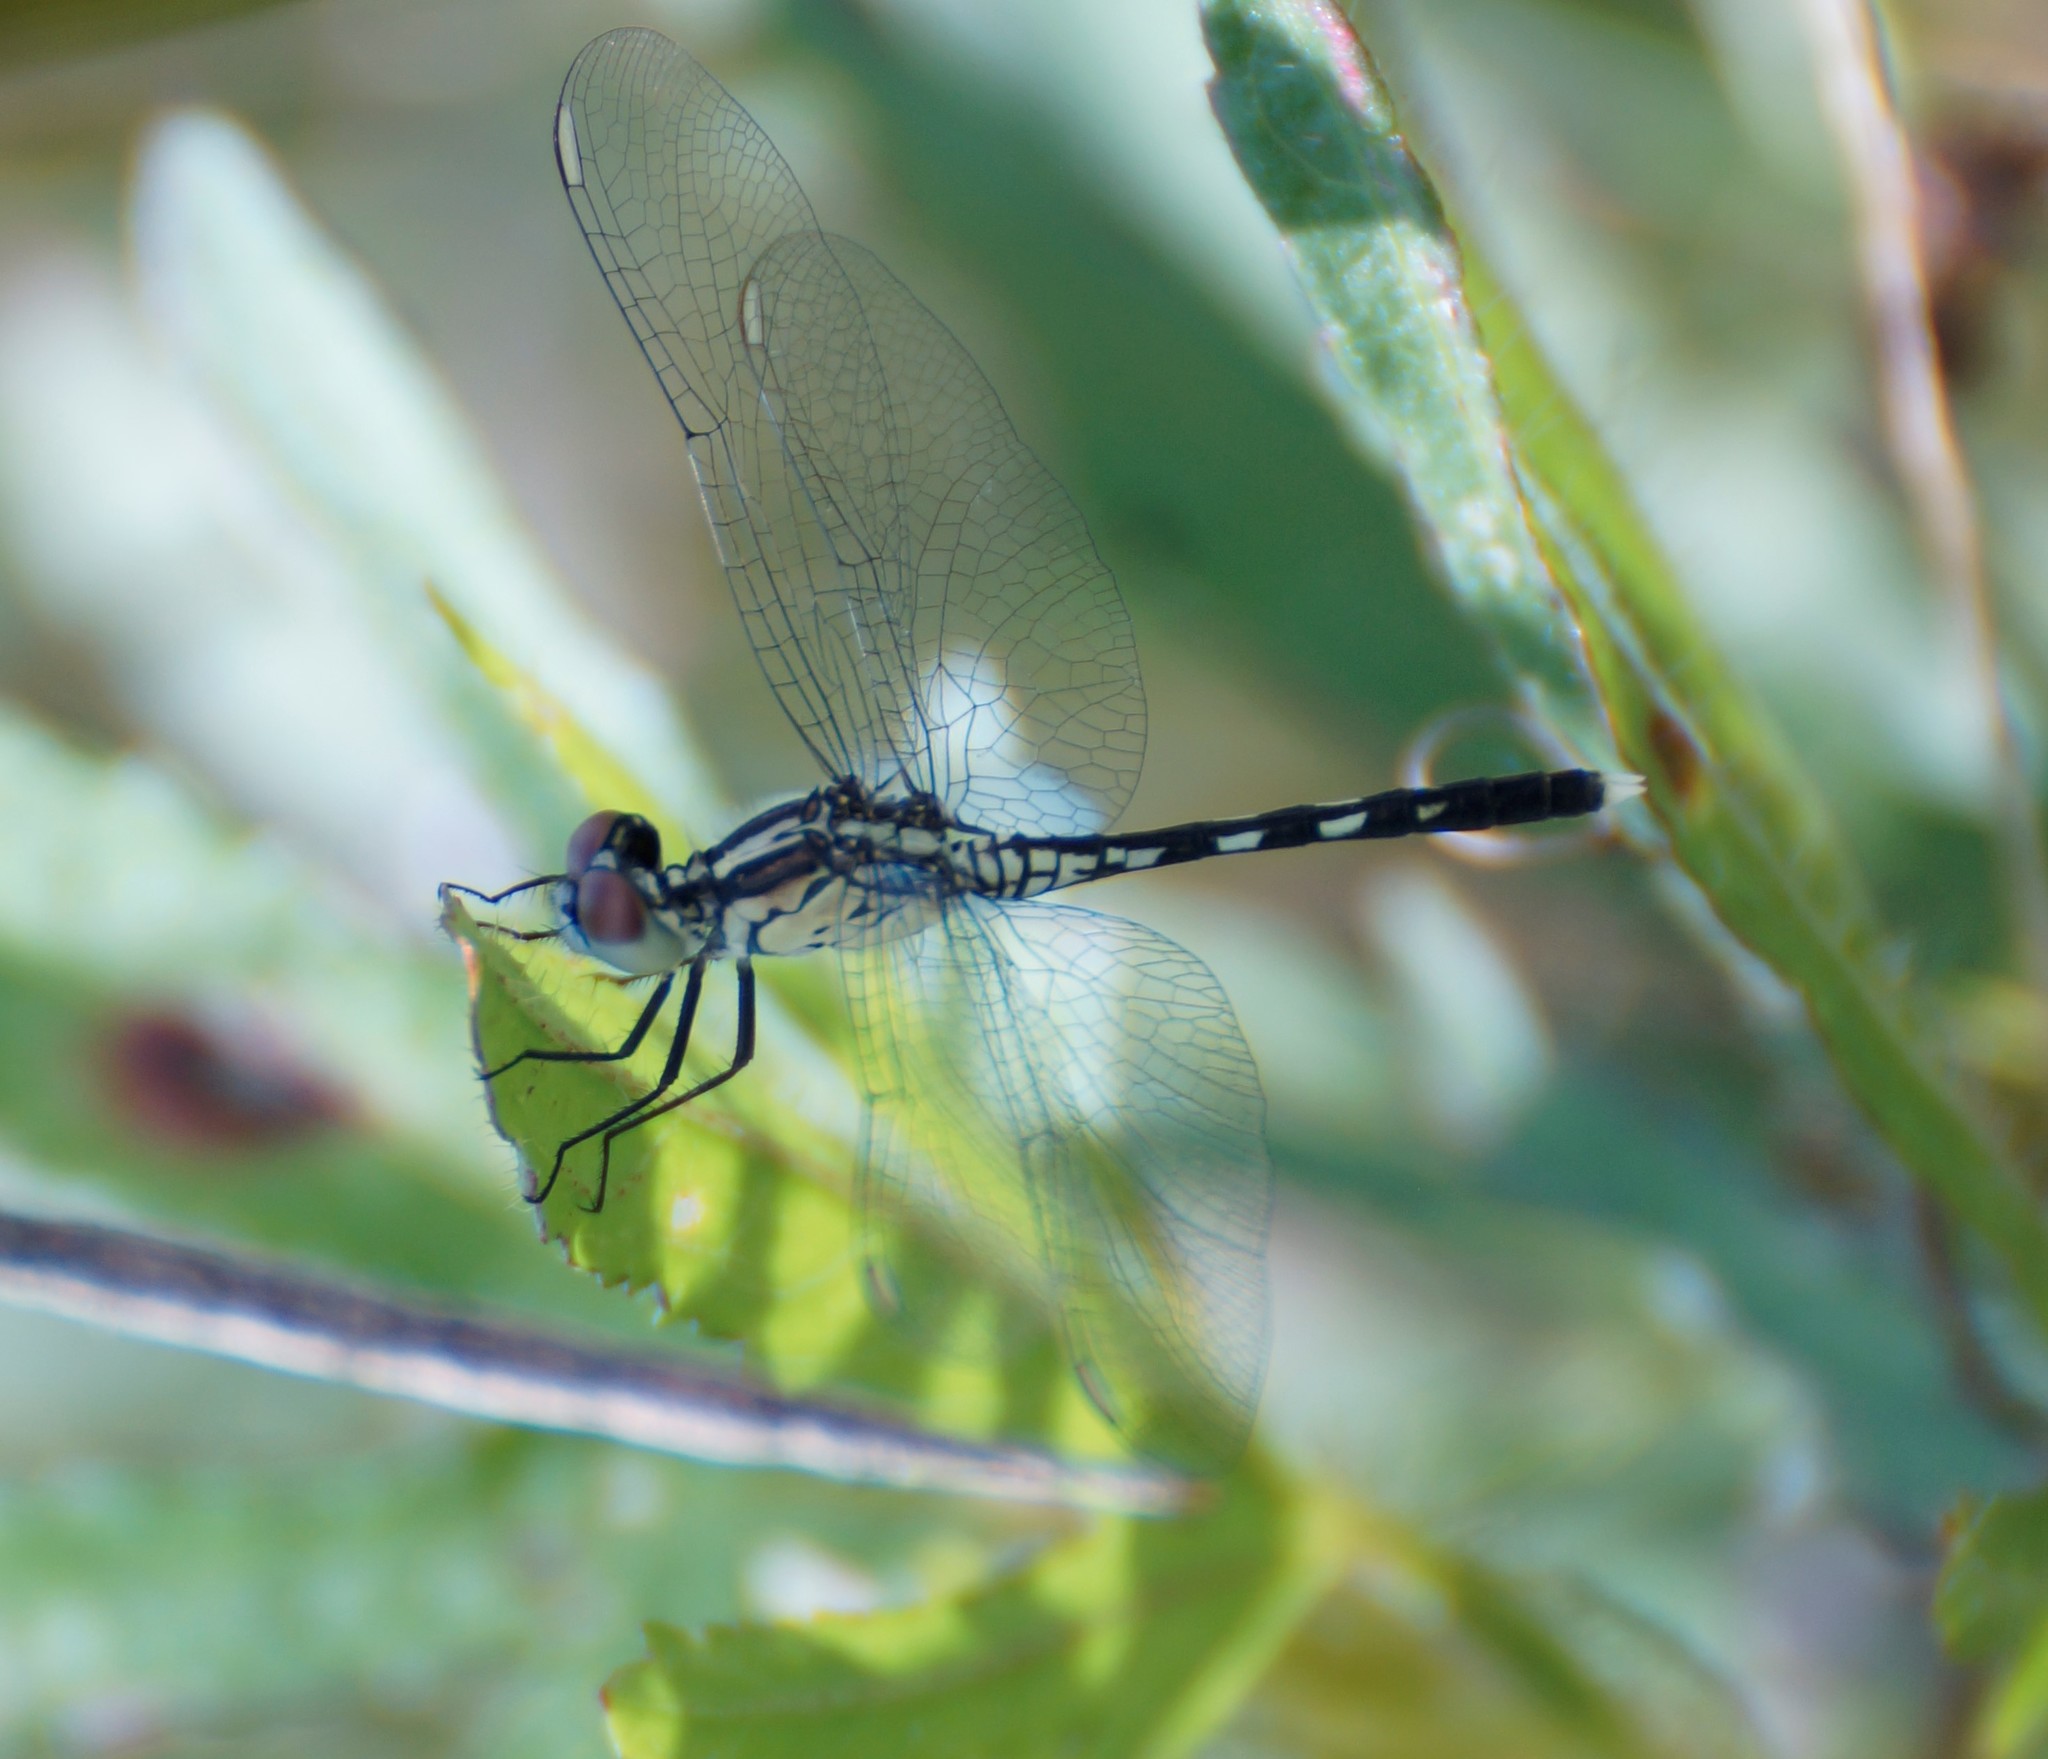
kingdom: Animalia
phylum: Arthropoda
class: Insecta
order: Odonata
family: Libellulidae
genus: Diplacodes
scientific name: Diplacodes trivialis
